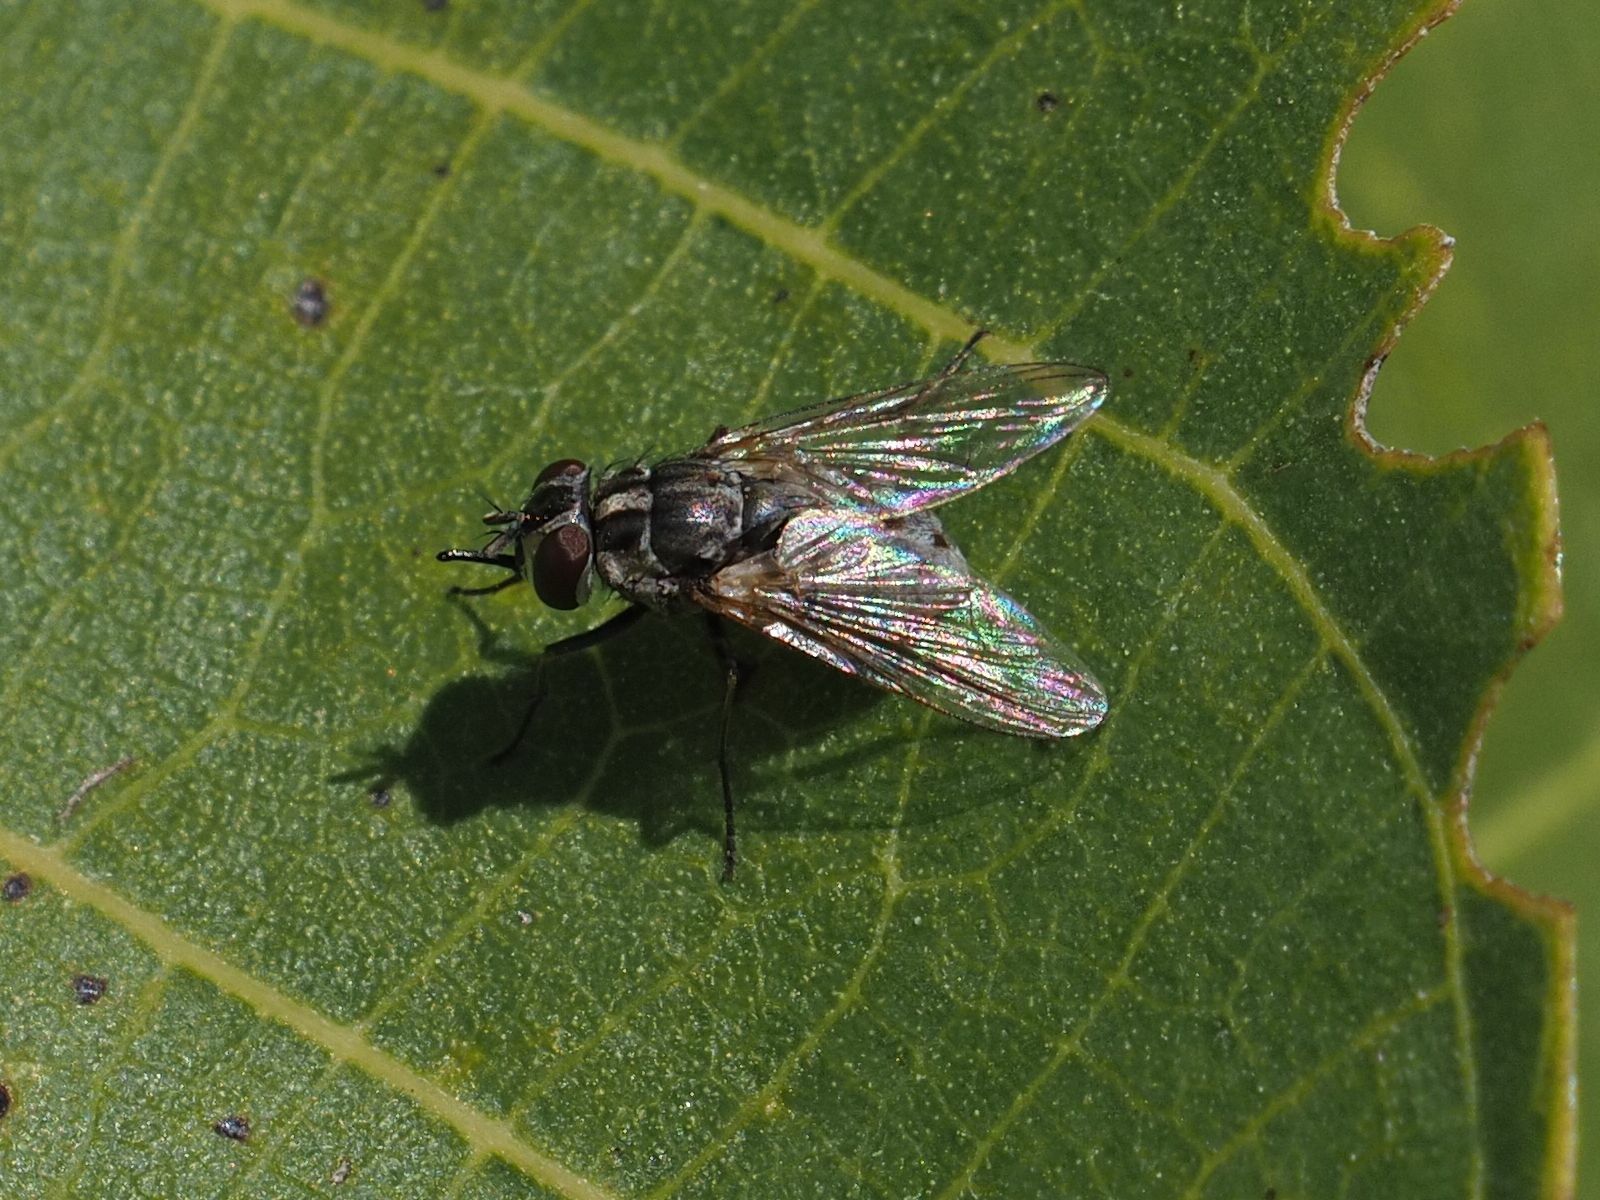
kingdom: Animalia
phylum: Arthropoda
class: Insecta
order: Diptera
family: Muscidae
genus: Stomoxys
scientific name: Stomoxys calcitrans
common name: Stable fly
